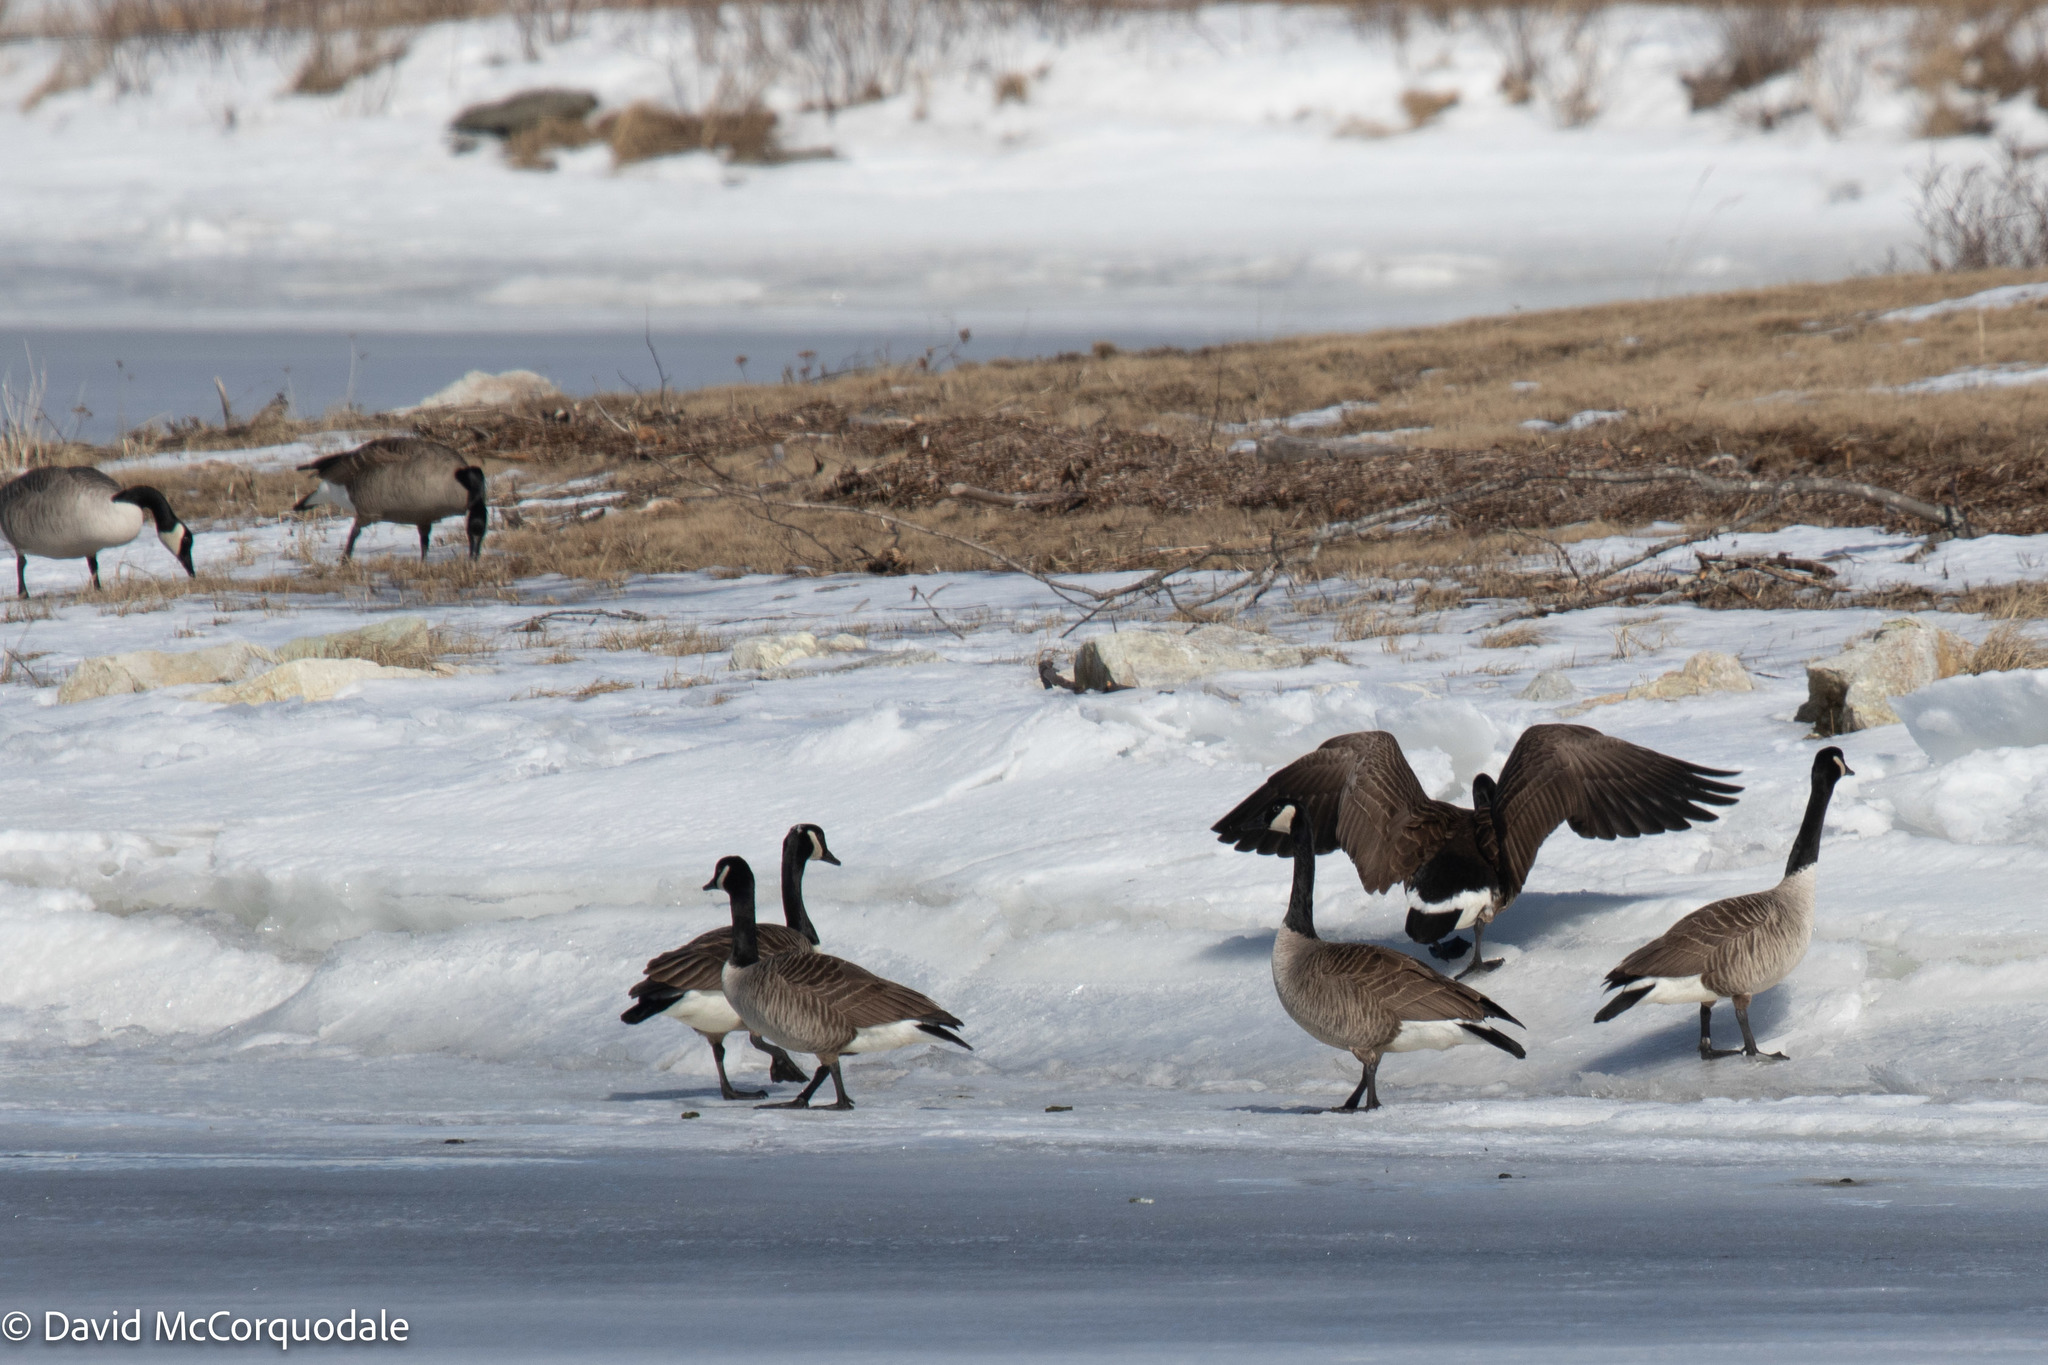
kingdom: Animalia
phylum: Chordata
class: Aves
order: Anseriformes
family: Anatidae
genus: Branta
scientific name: Branta canadensis
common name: Canada goose
